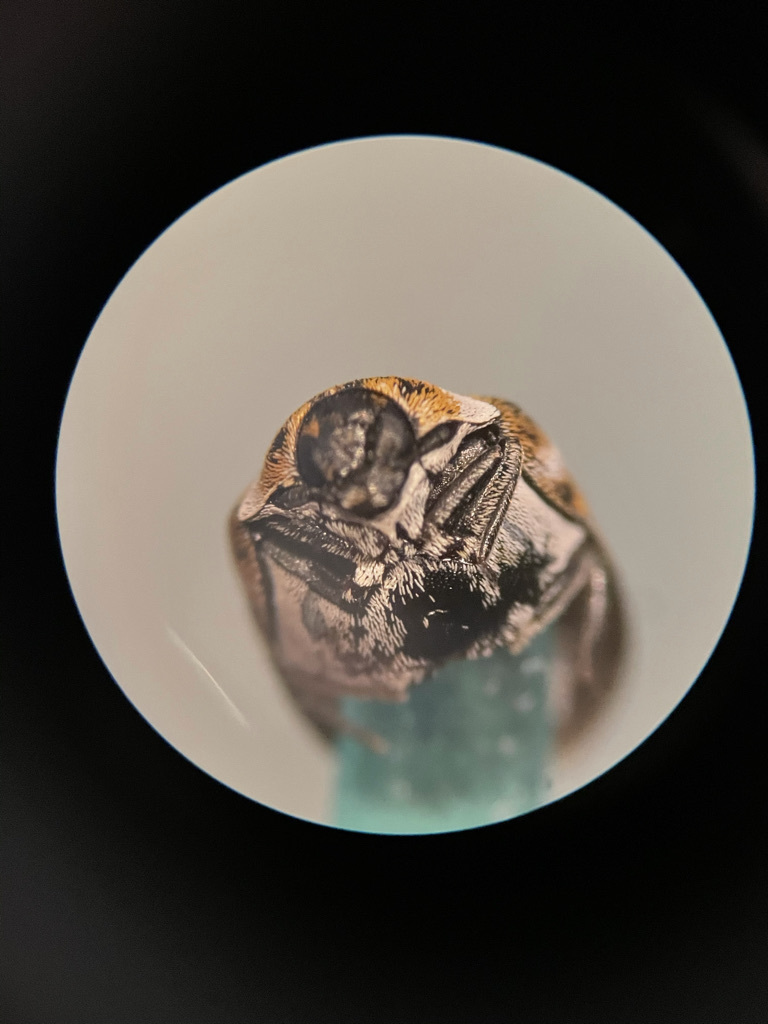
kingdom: Animalia
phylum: Arthropoda
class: Insecta
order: Coleoptera
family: Dermestidae
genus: Anthrenus
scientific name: Anthrenus verbasci
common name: Varied carpet beetle
